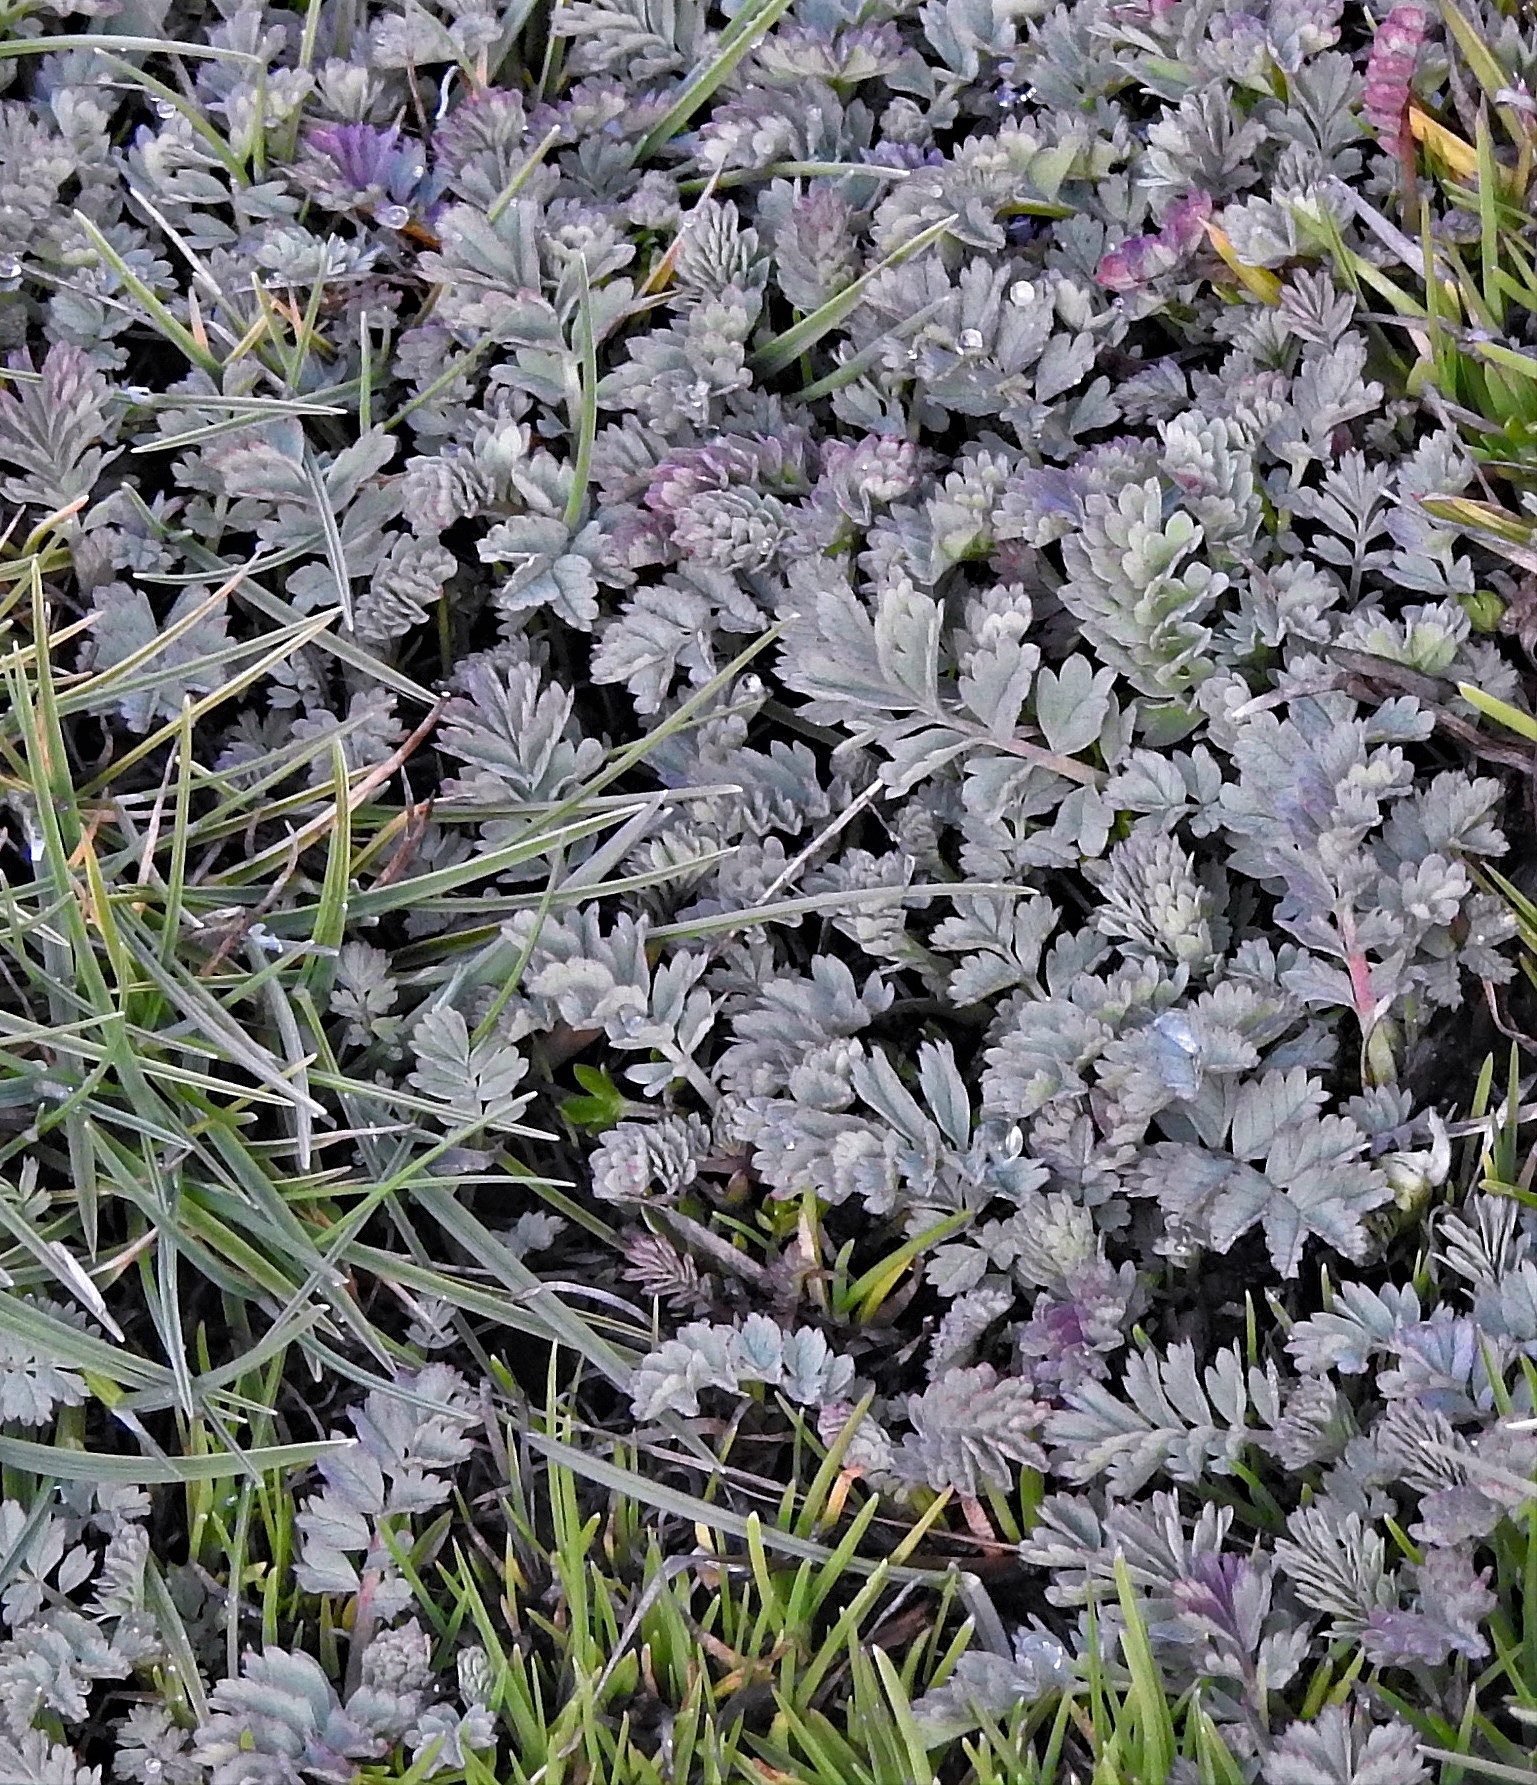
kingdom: Plantae
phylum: Tracheophyta
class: Magnoliopsida
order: Rosales
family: Rosaceae
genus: Acaena
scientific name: Acaena magellanica
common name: New zealand burr
